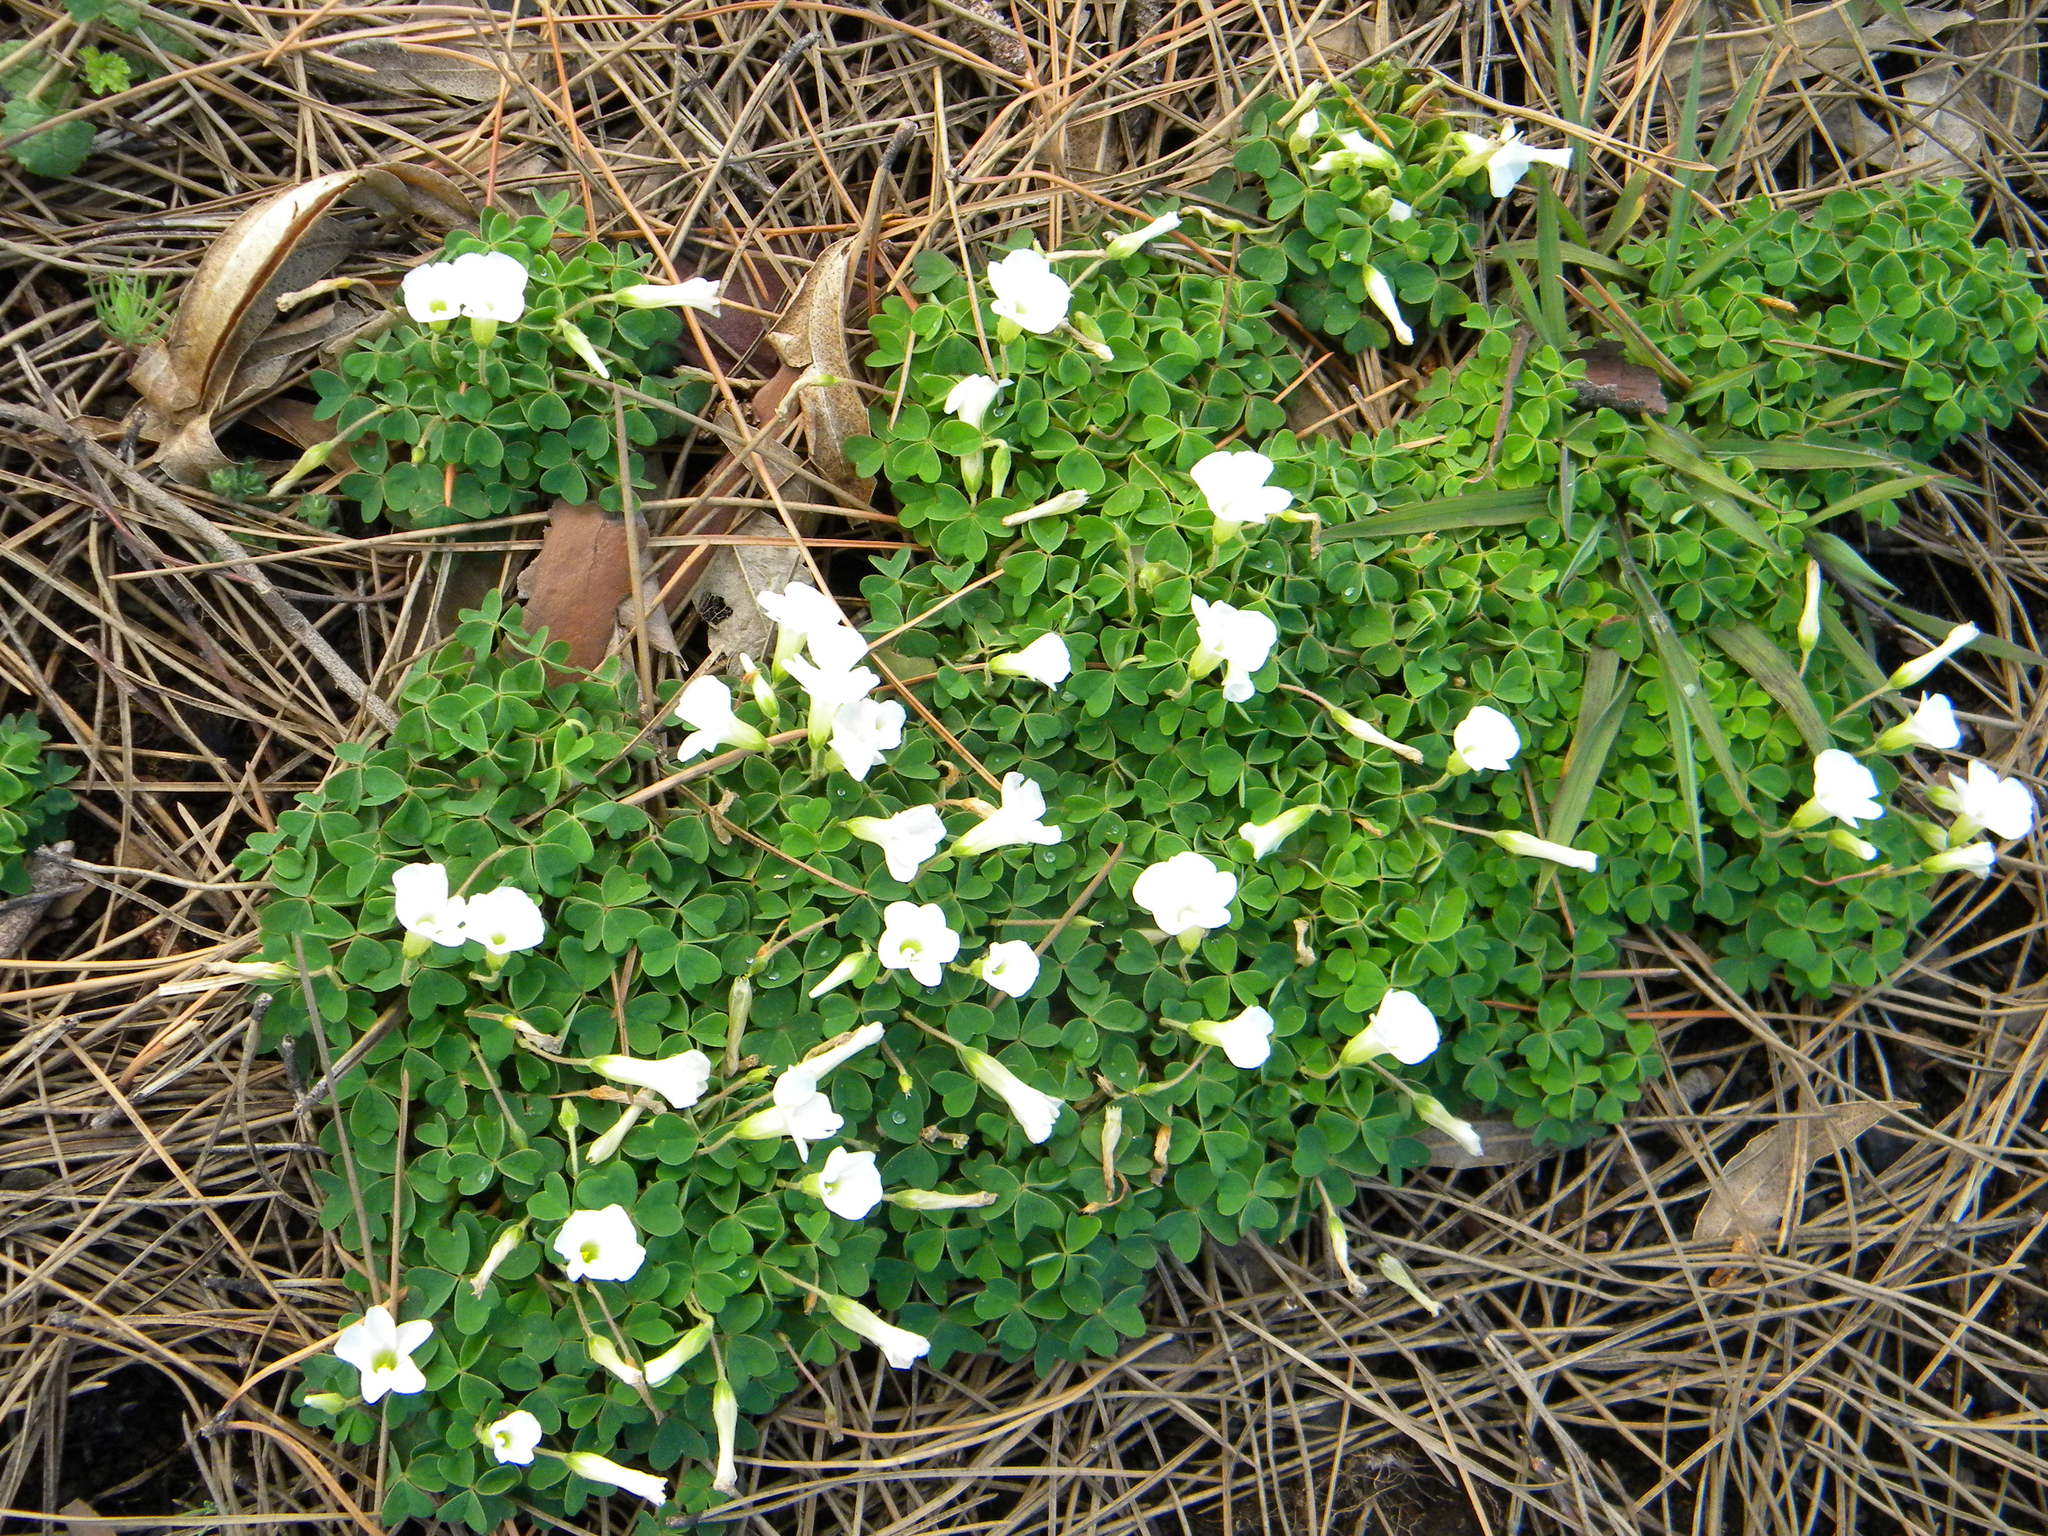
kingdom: Plantae
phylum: Tracheophyta
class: Magnoliopsida
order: Oxalidales
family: Oxalidaceae
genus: Oxalis
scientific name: Oxalis lanata
